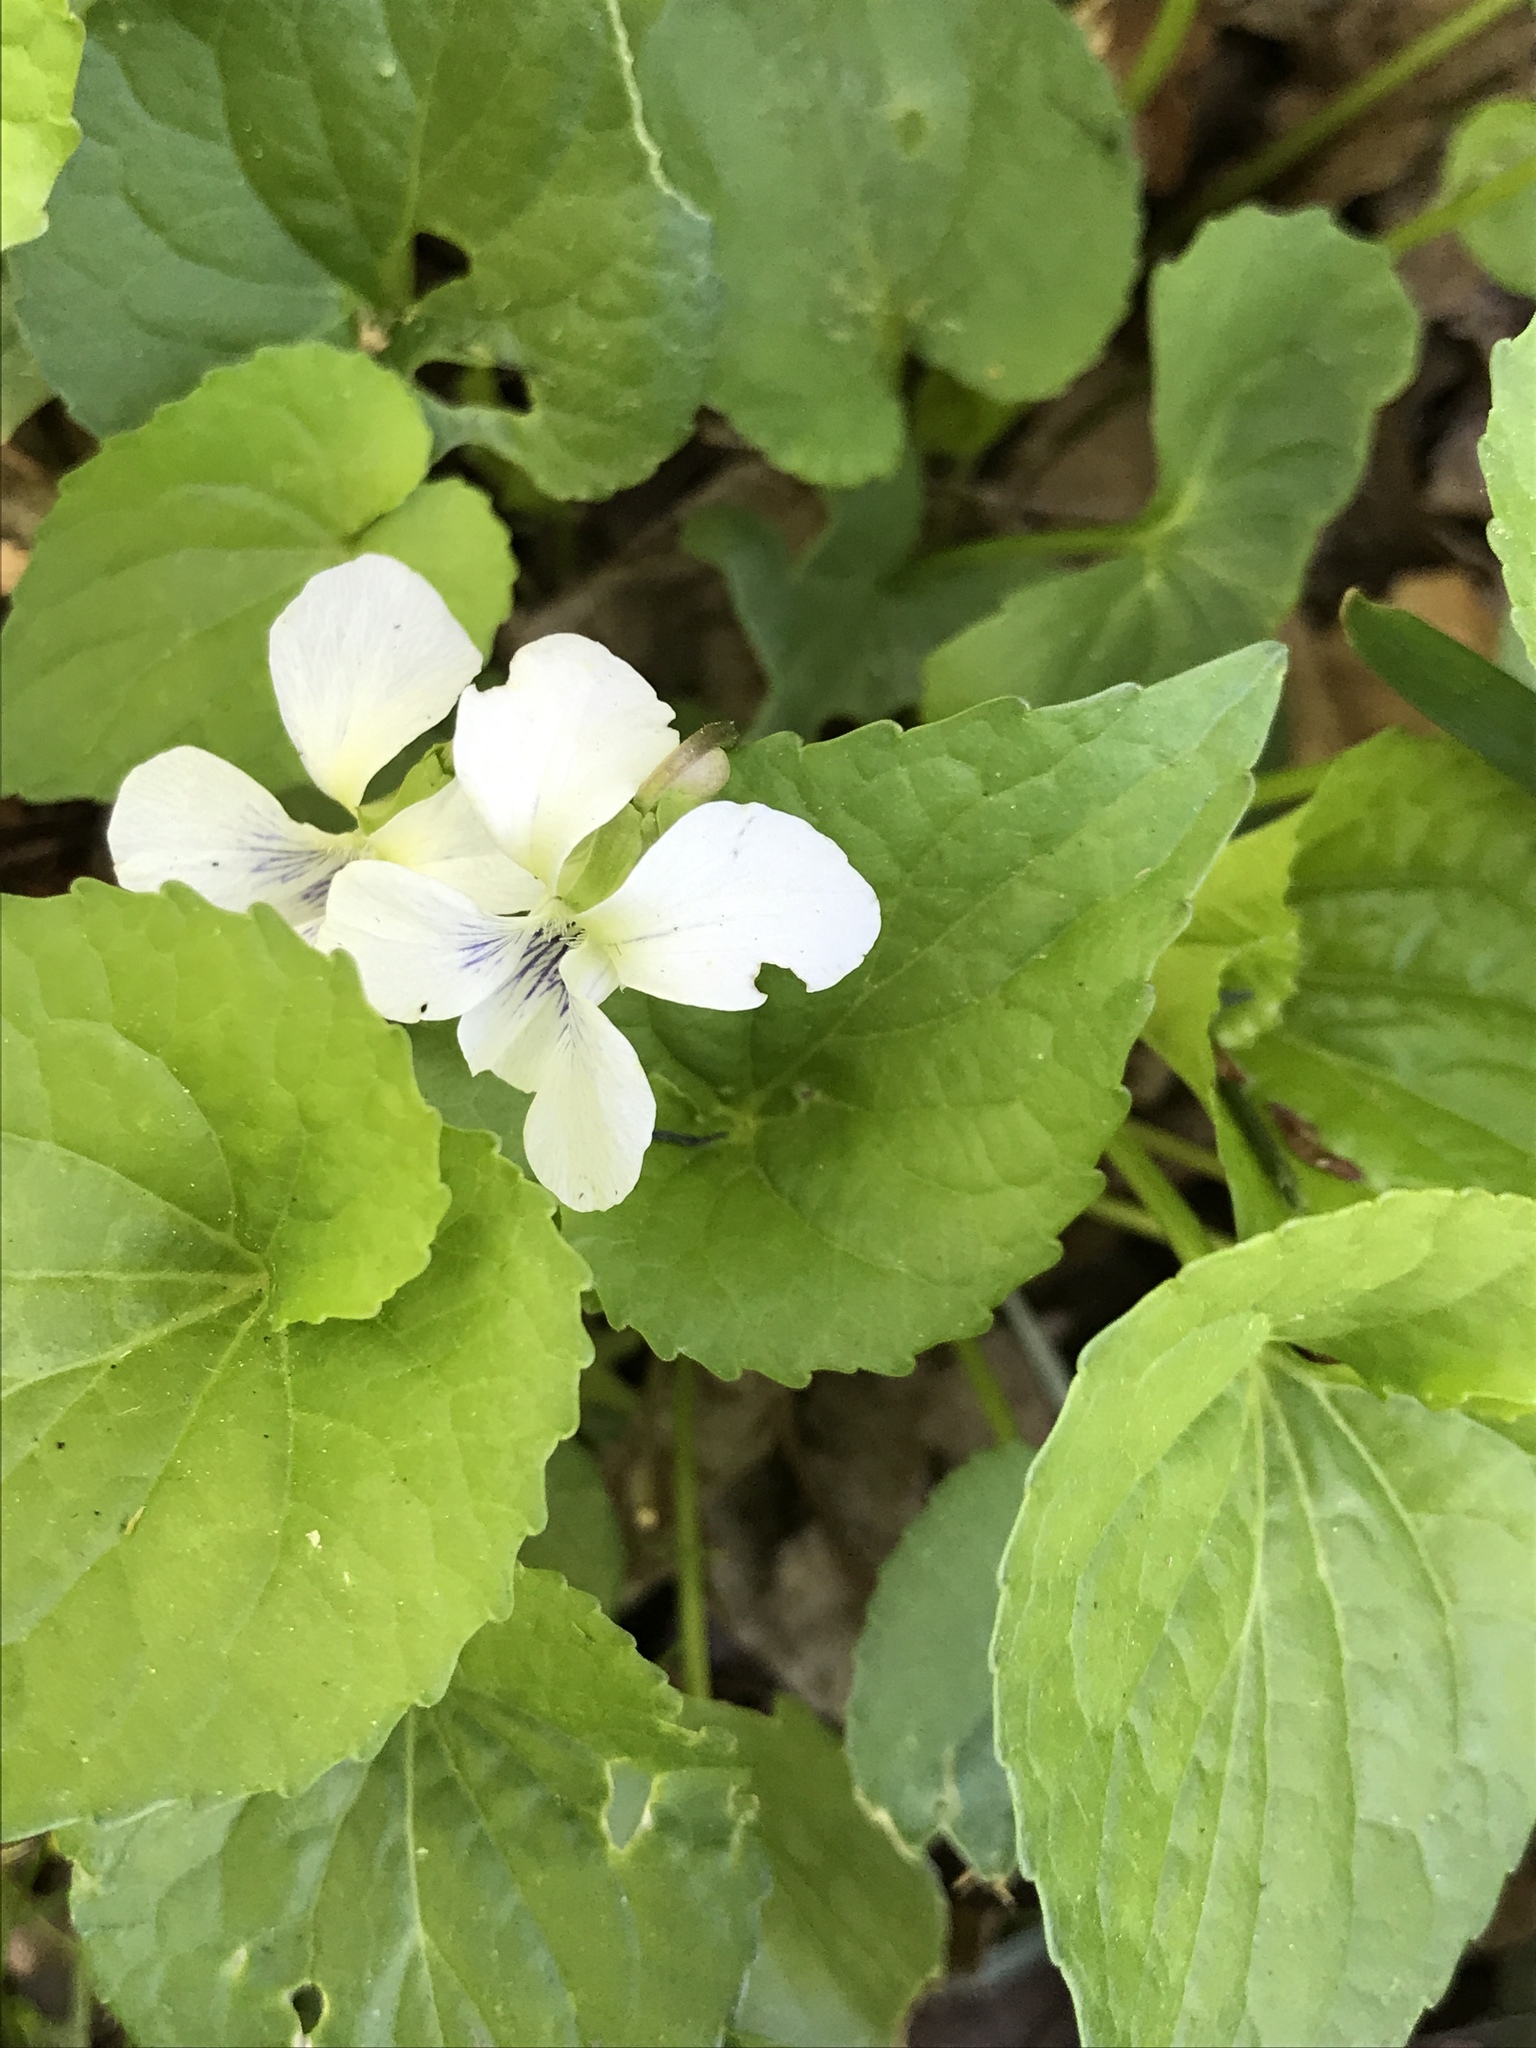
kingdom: Plantae
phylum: Tracheophyta
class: Magnoliopsida
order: Malpighiales
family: Violaceae
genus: Viola
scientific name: Viola sororia
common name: Dooryard violet
